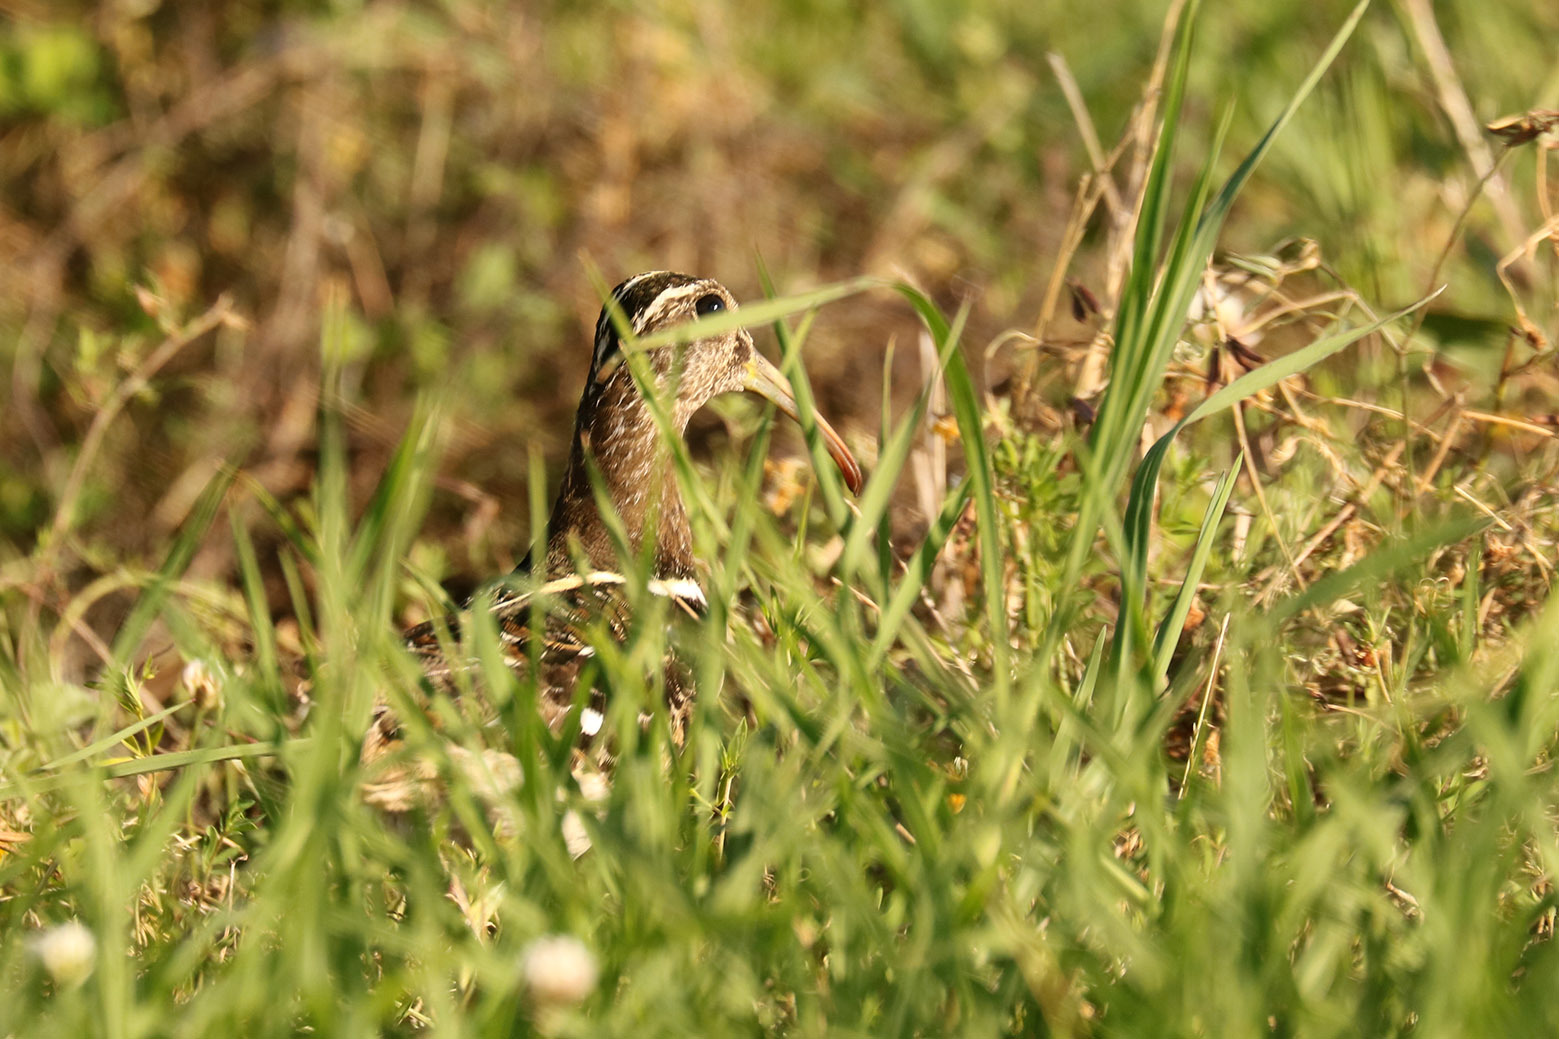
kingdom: Animalia
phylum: Chordata
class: Aves
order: Charadriiformes
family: Rostratulidae
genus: Nycticryphes
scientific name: Nycticryphes semicollaris
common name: South american painted-snipe
